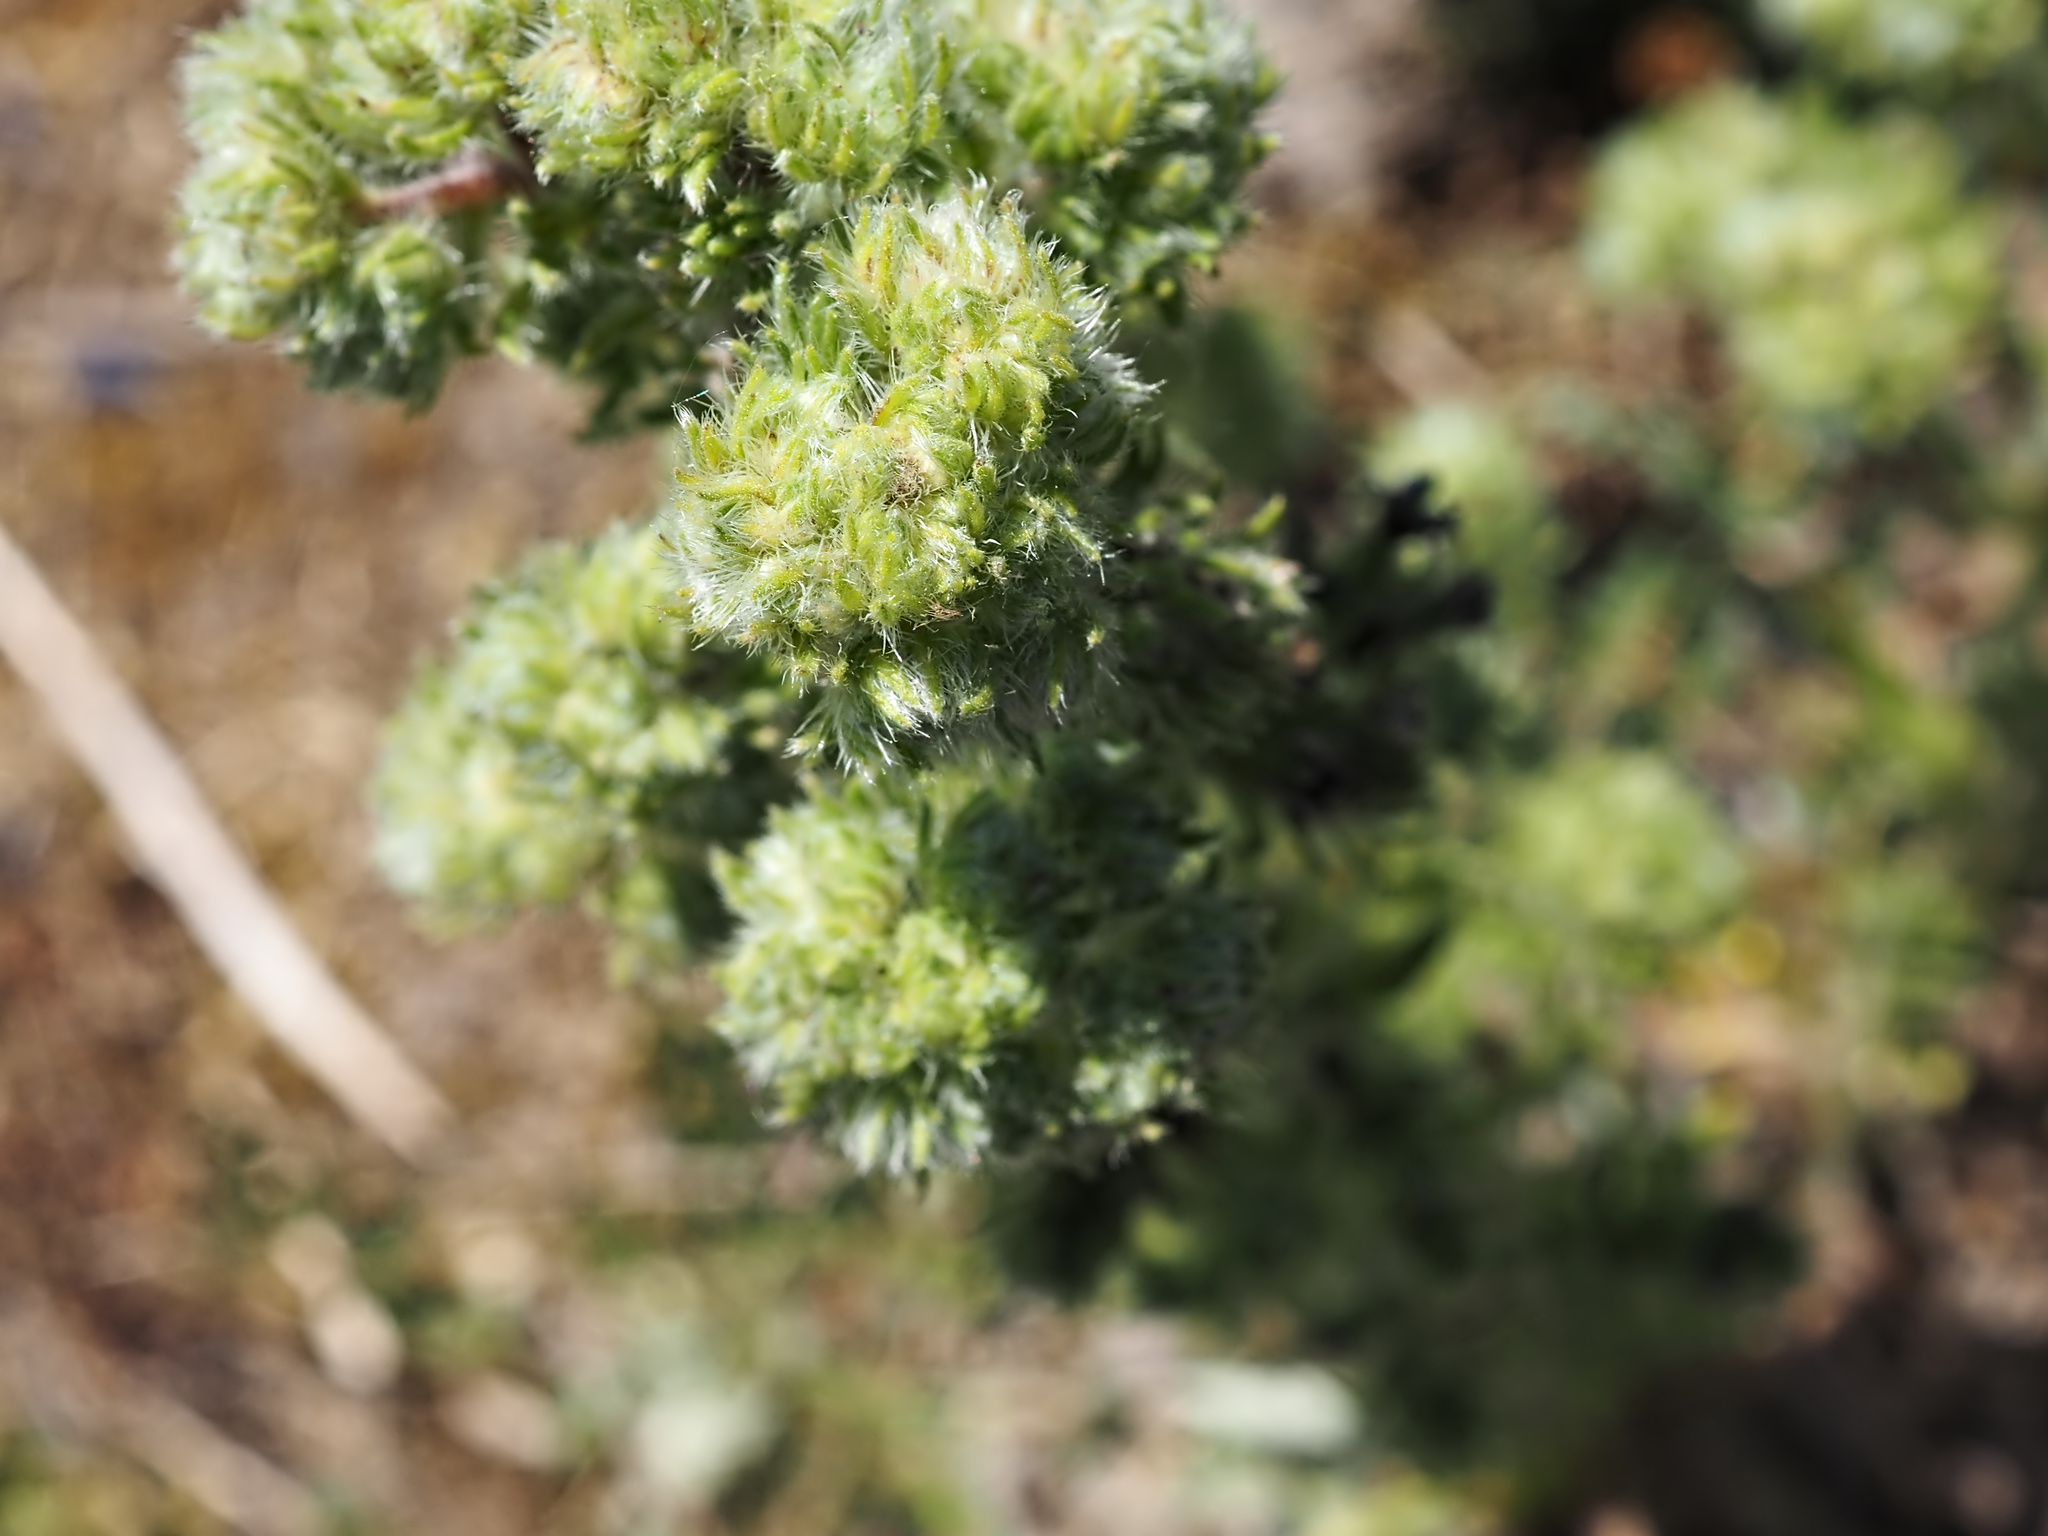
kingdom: Animalia
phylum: Arthropoda
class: Arachnida
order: Trombidiformes
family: Eriophyidae
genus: Aceria
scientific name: Aceria echii
